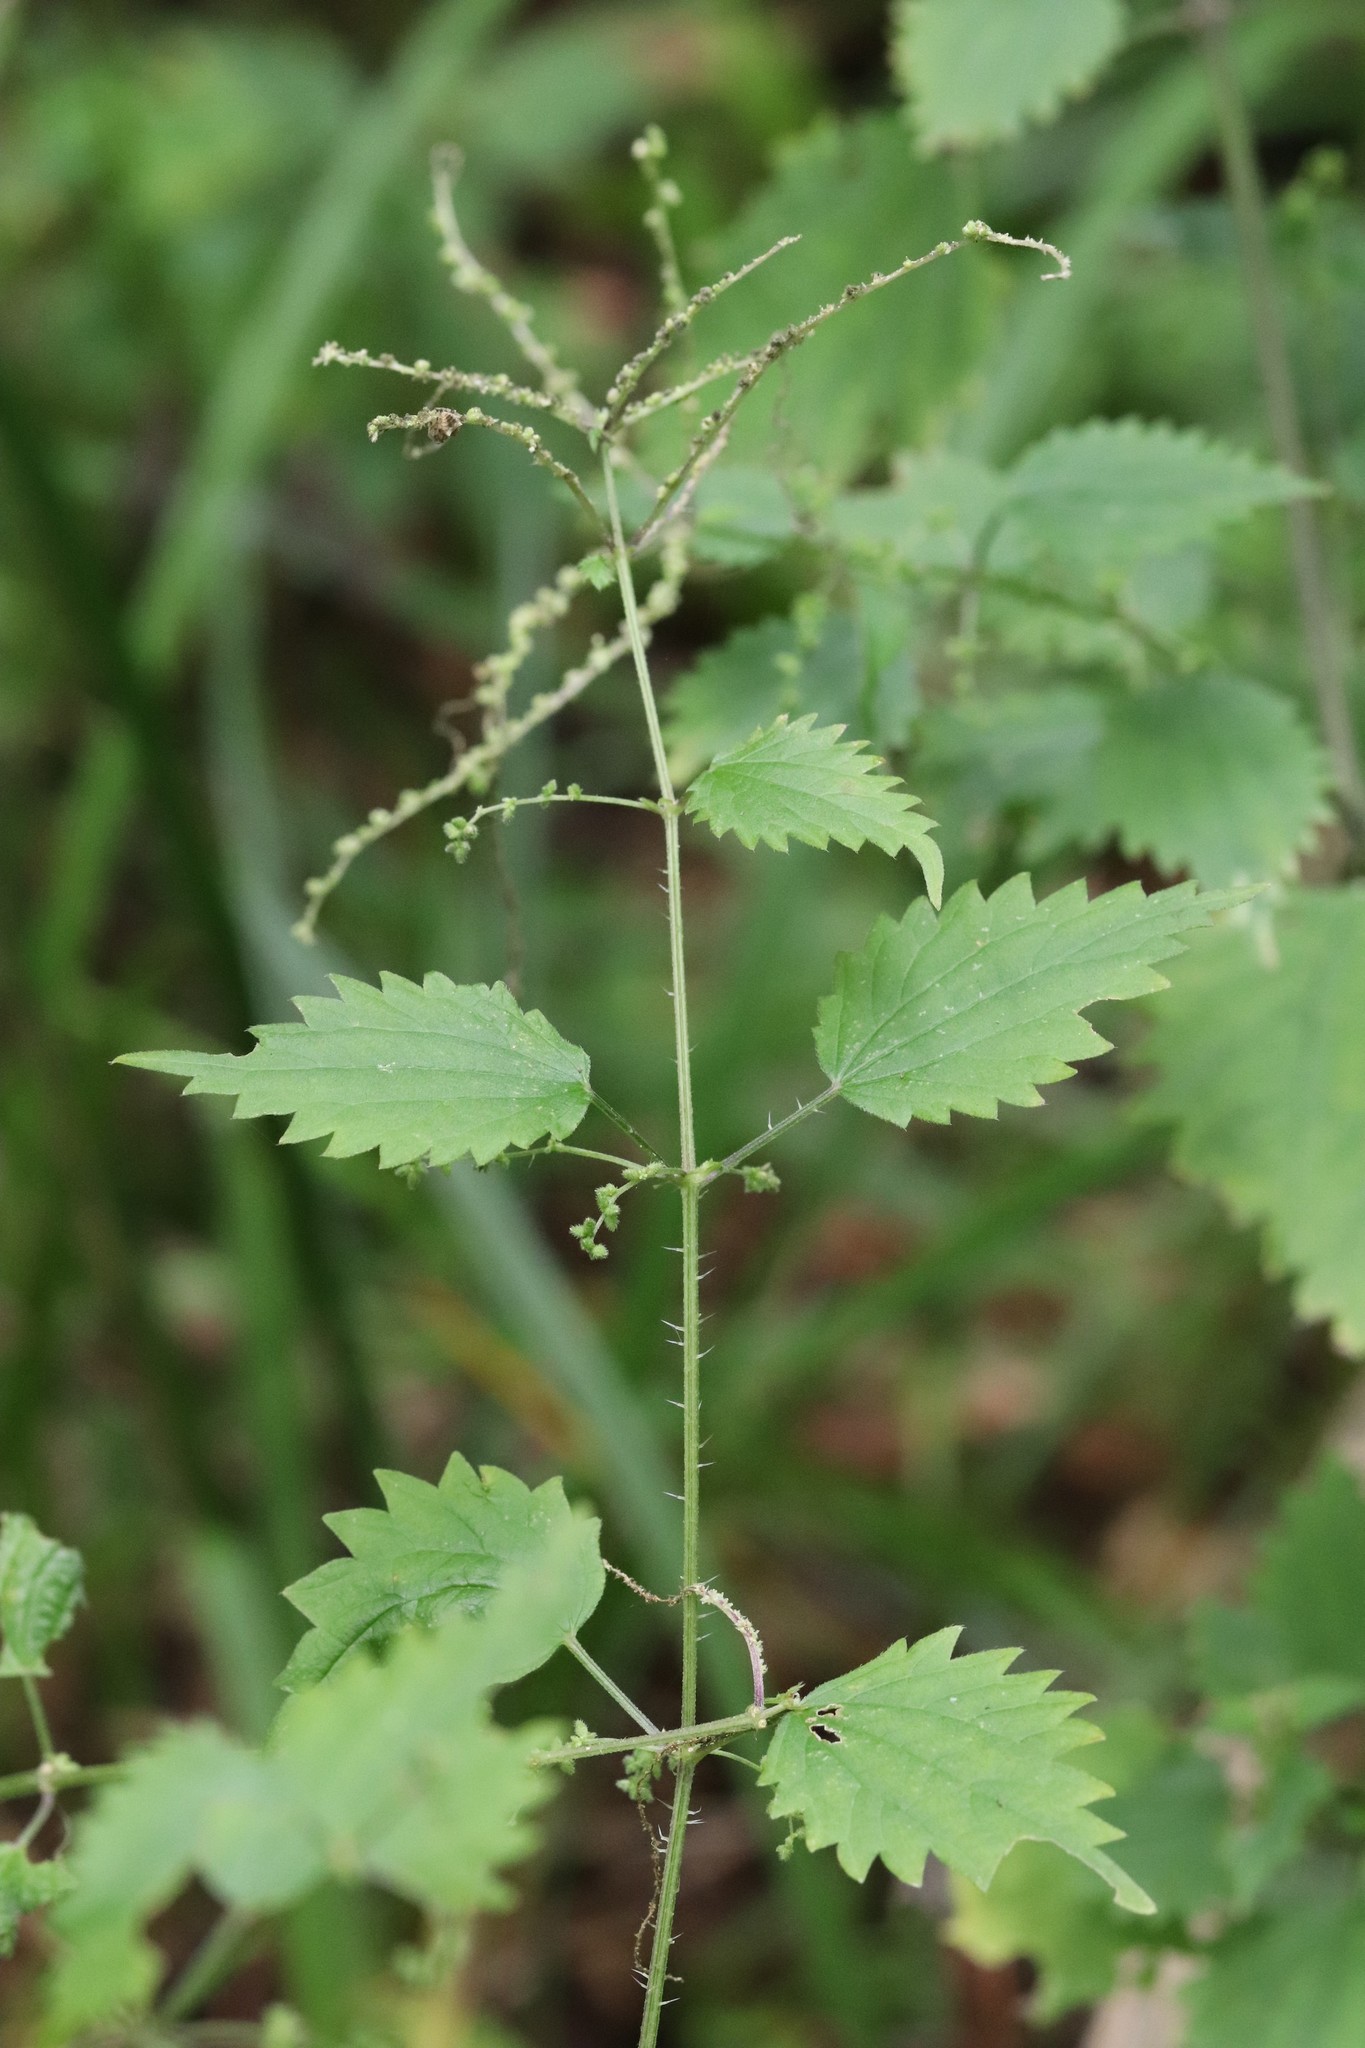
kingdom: Plantae
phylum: Tracheophyta
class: Magnoliopsida
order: Rosales
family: Urticaceae
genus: Urtica
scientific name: Urtica thunbergiana
